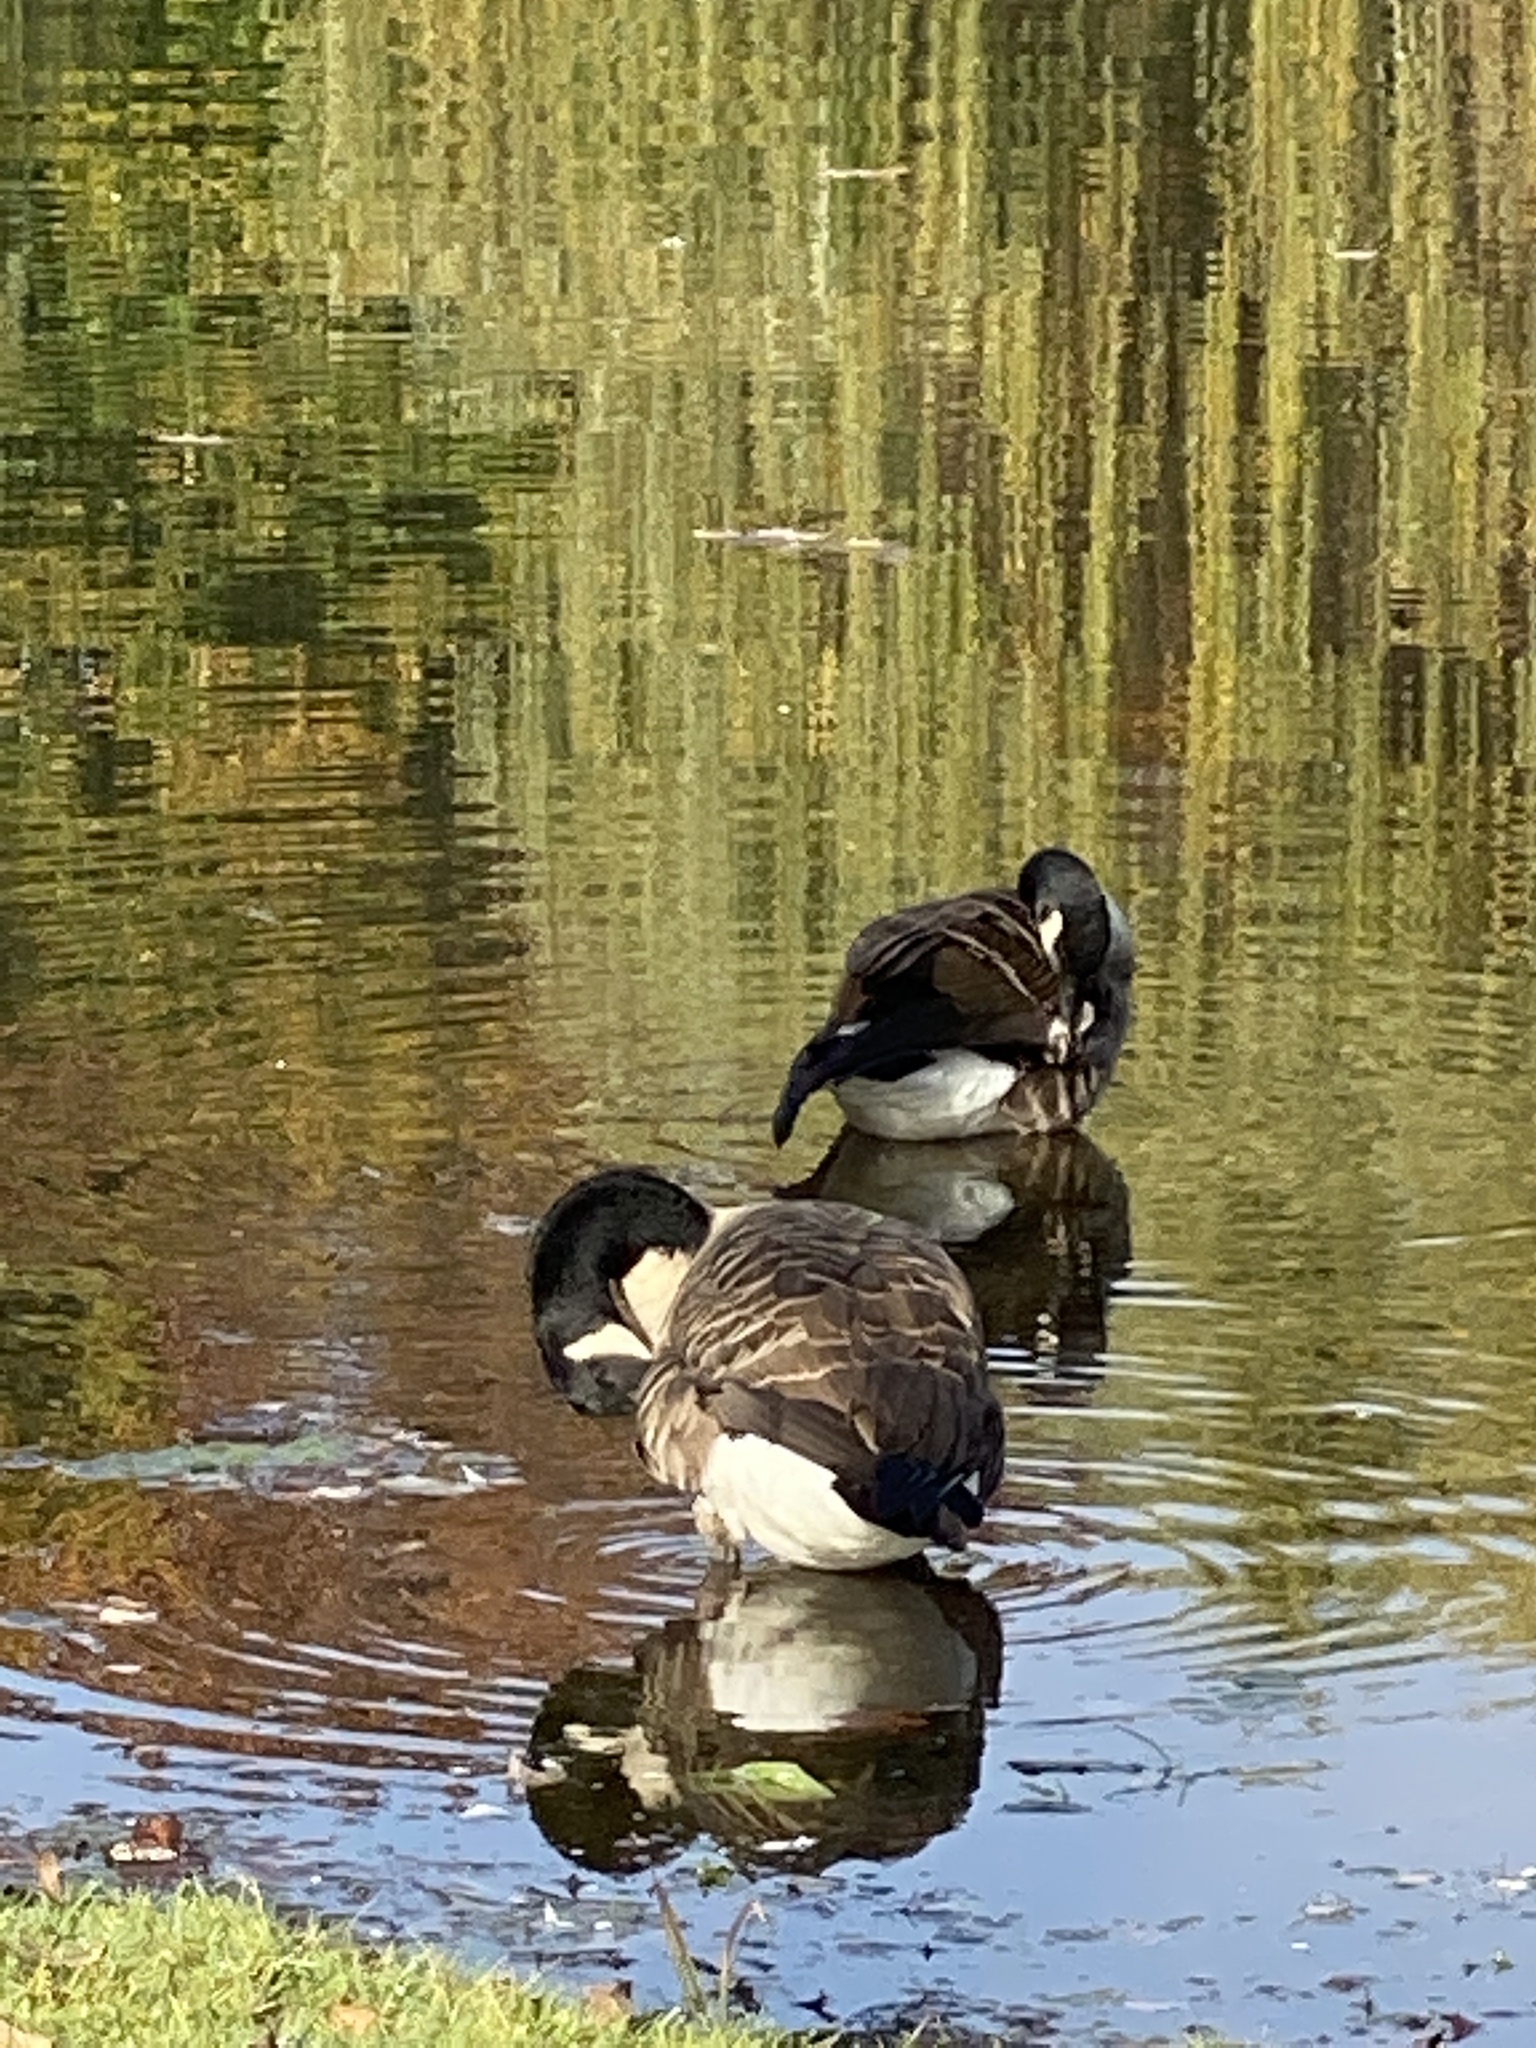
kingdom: Animalia
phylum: Chordata
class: Aves
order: Anseriformes
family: Anatidae
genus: Branta
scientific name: Branta canadensis
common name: Canada goose
